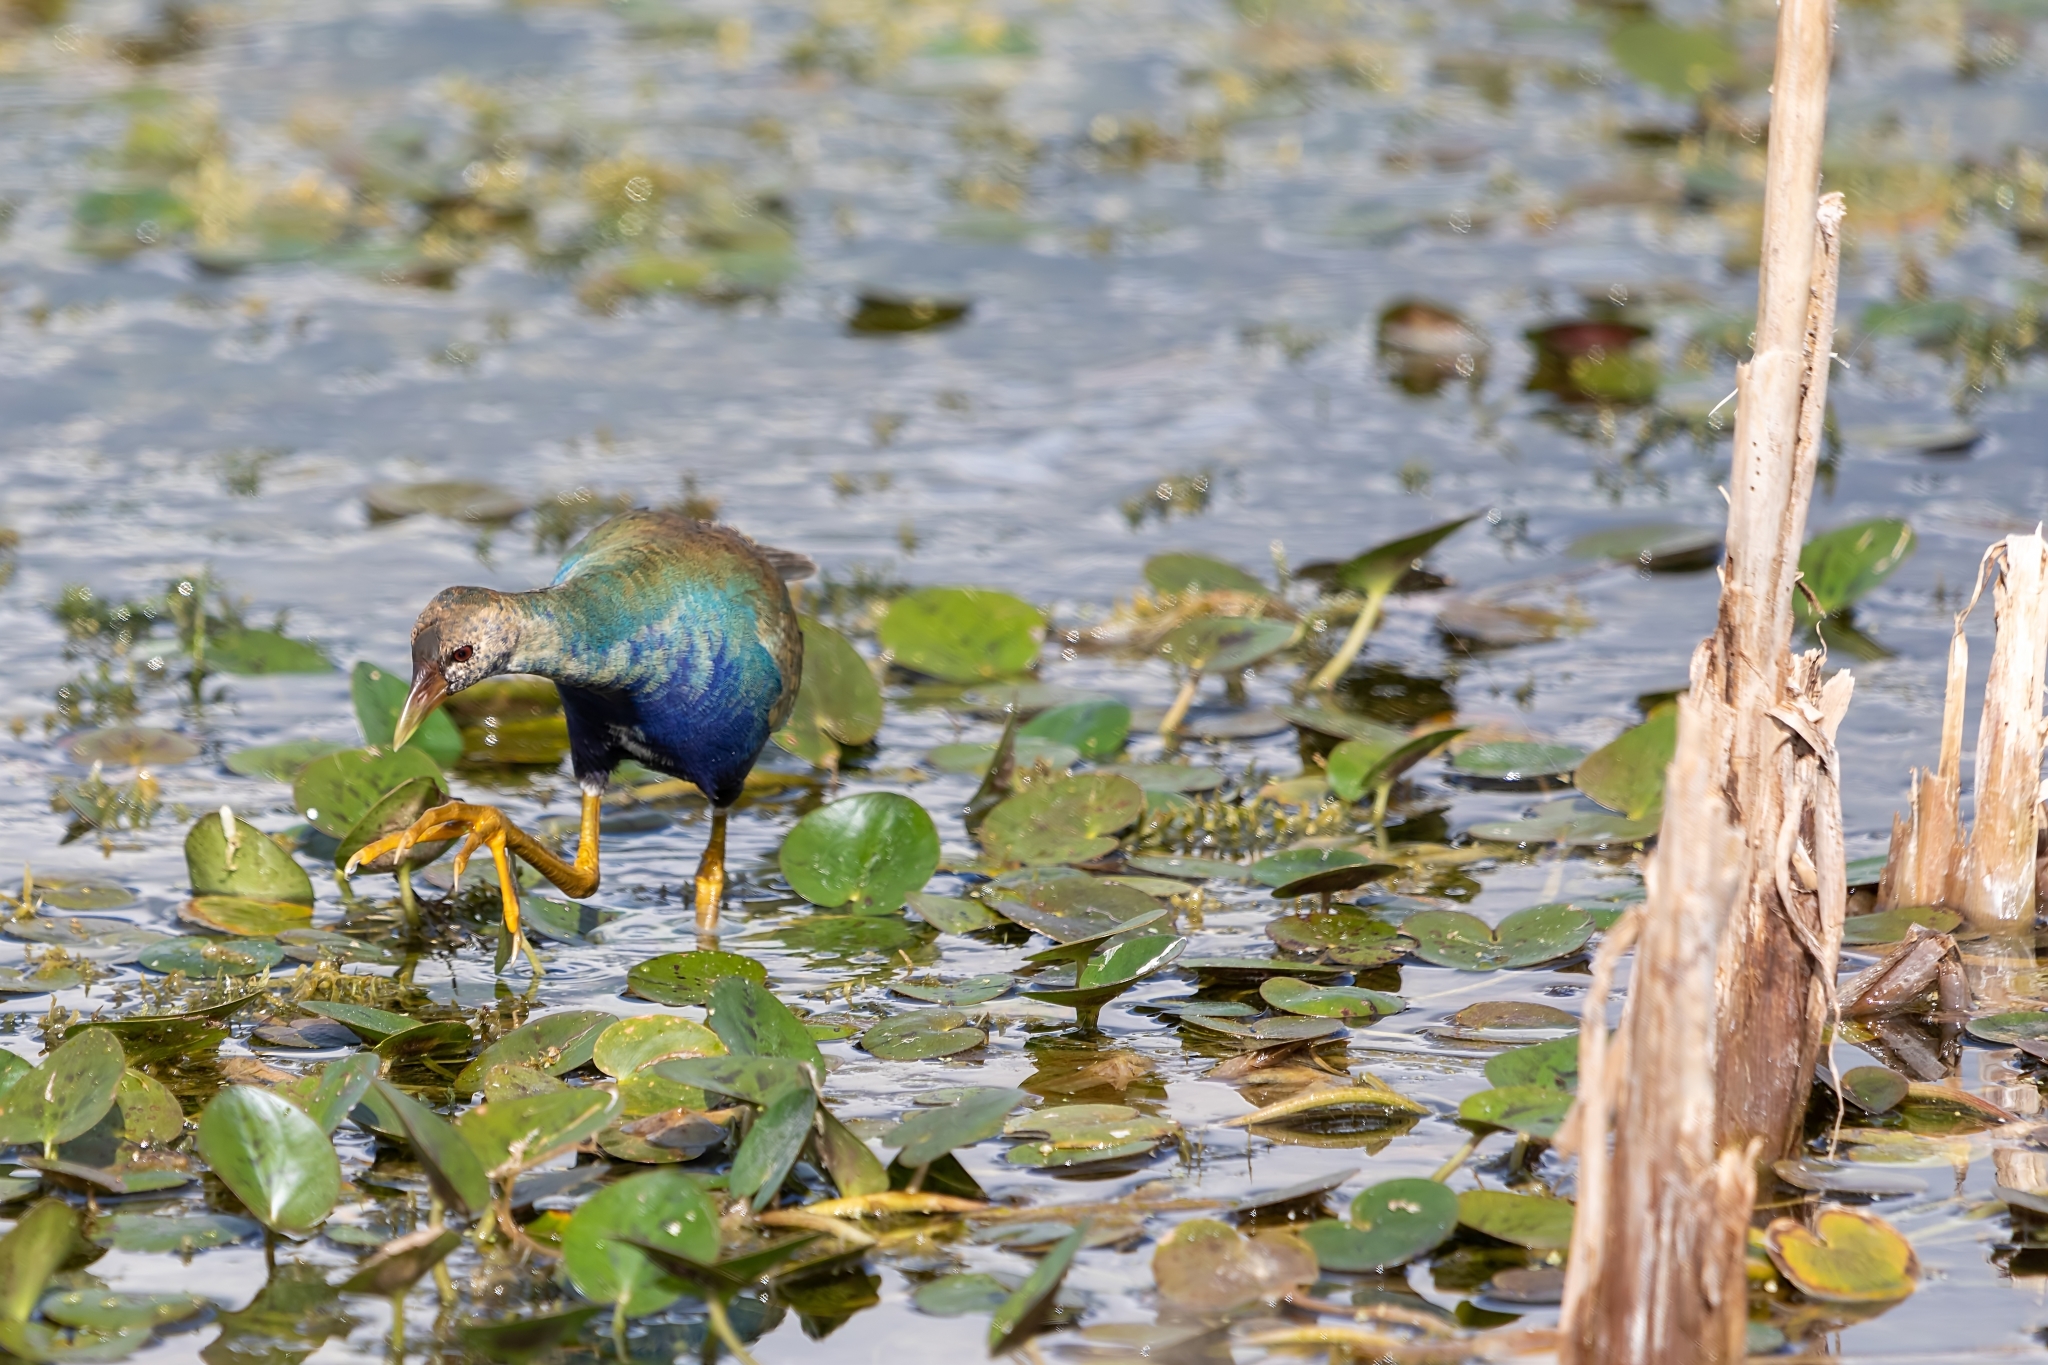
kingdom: Animalia
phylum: Chordata
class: Aves
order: Gruiformes
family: Rallidae
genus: Porphyrio
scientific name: Porphyrio martinica
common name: Purple gallinule
